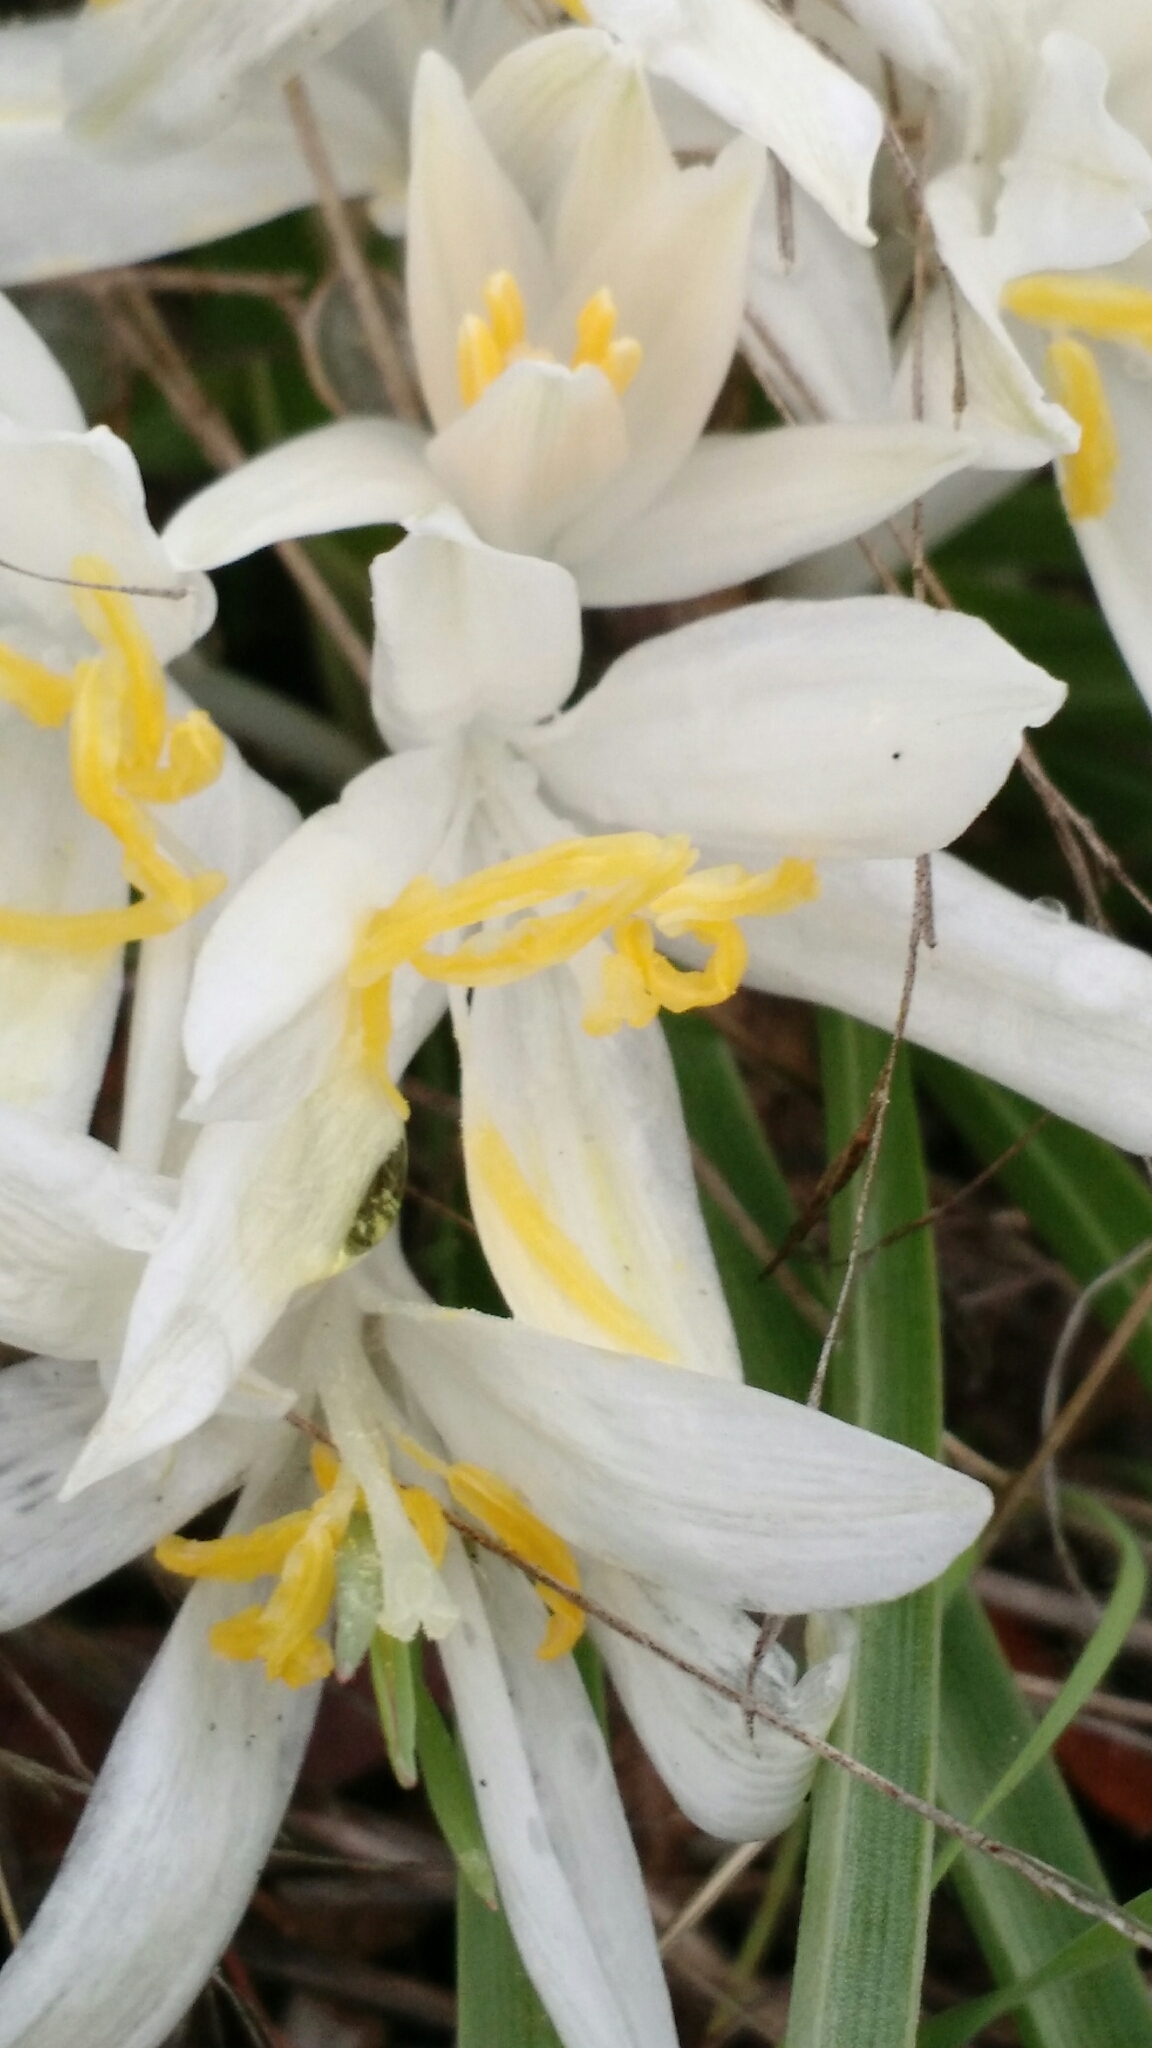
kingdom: Plantae
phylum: Tracheophyta
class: Liliopsida
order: Asparagales
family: Asparagaceae
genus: Leucocrinum
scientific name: Leucocrinum montanum
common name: Mountain-lily
